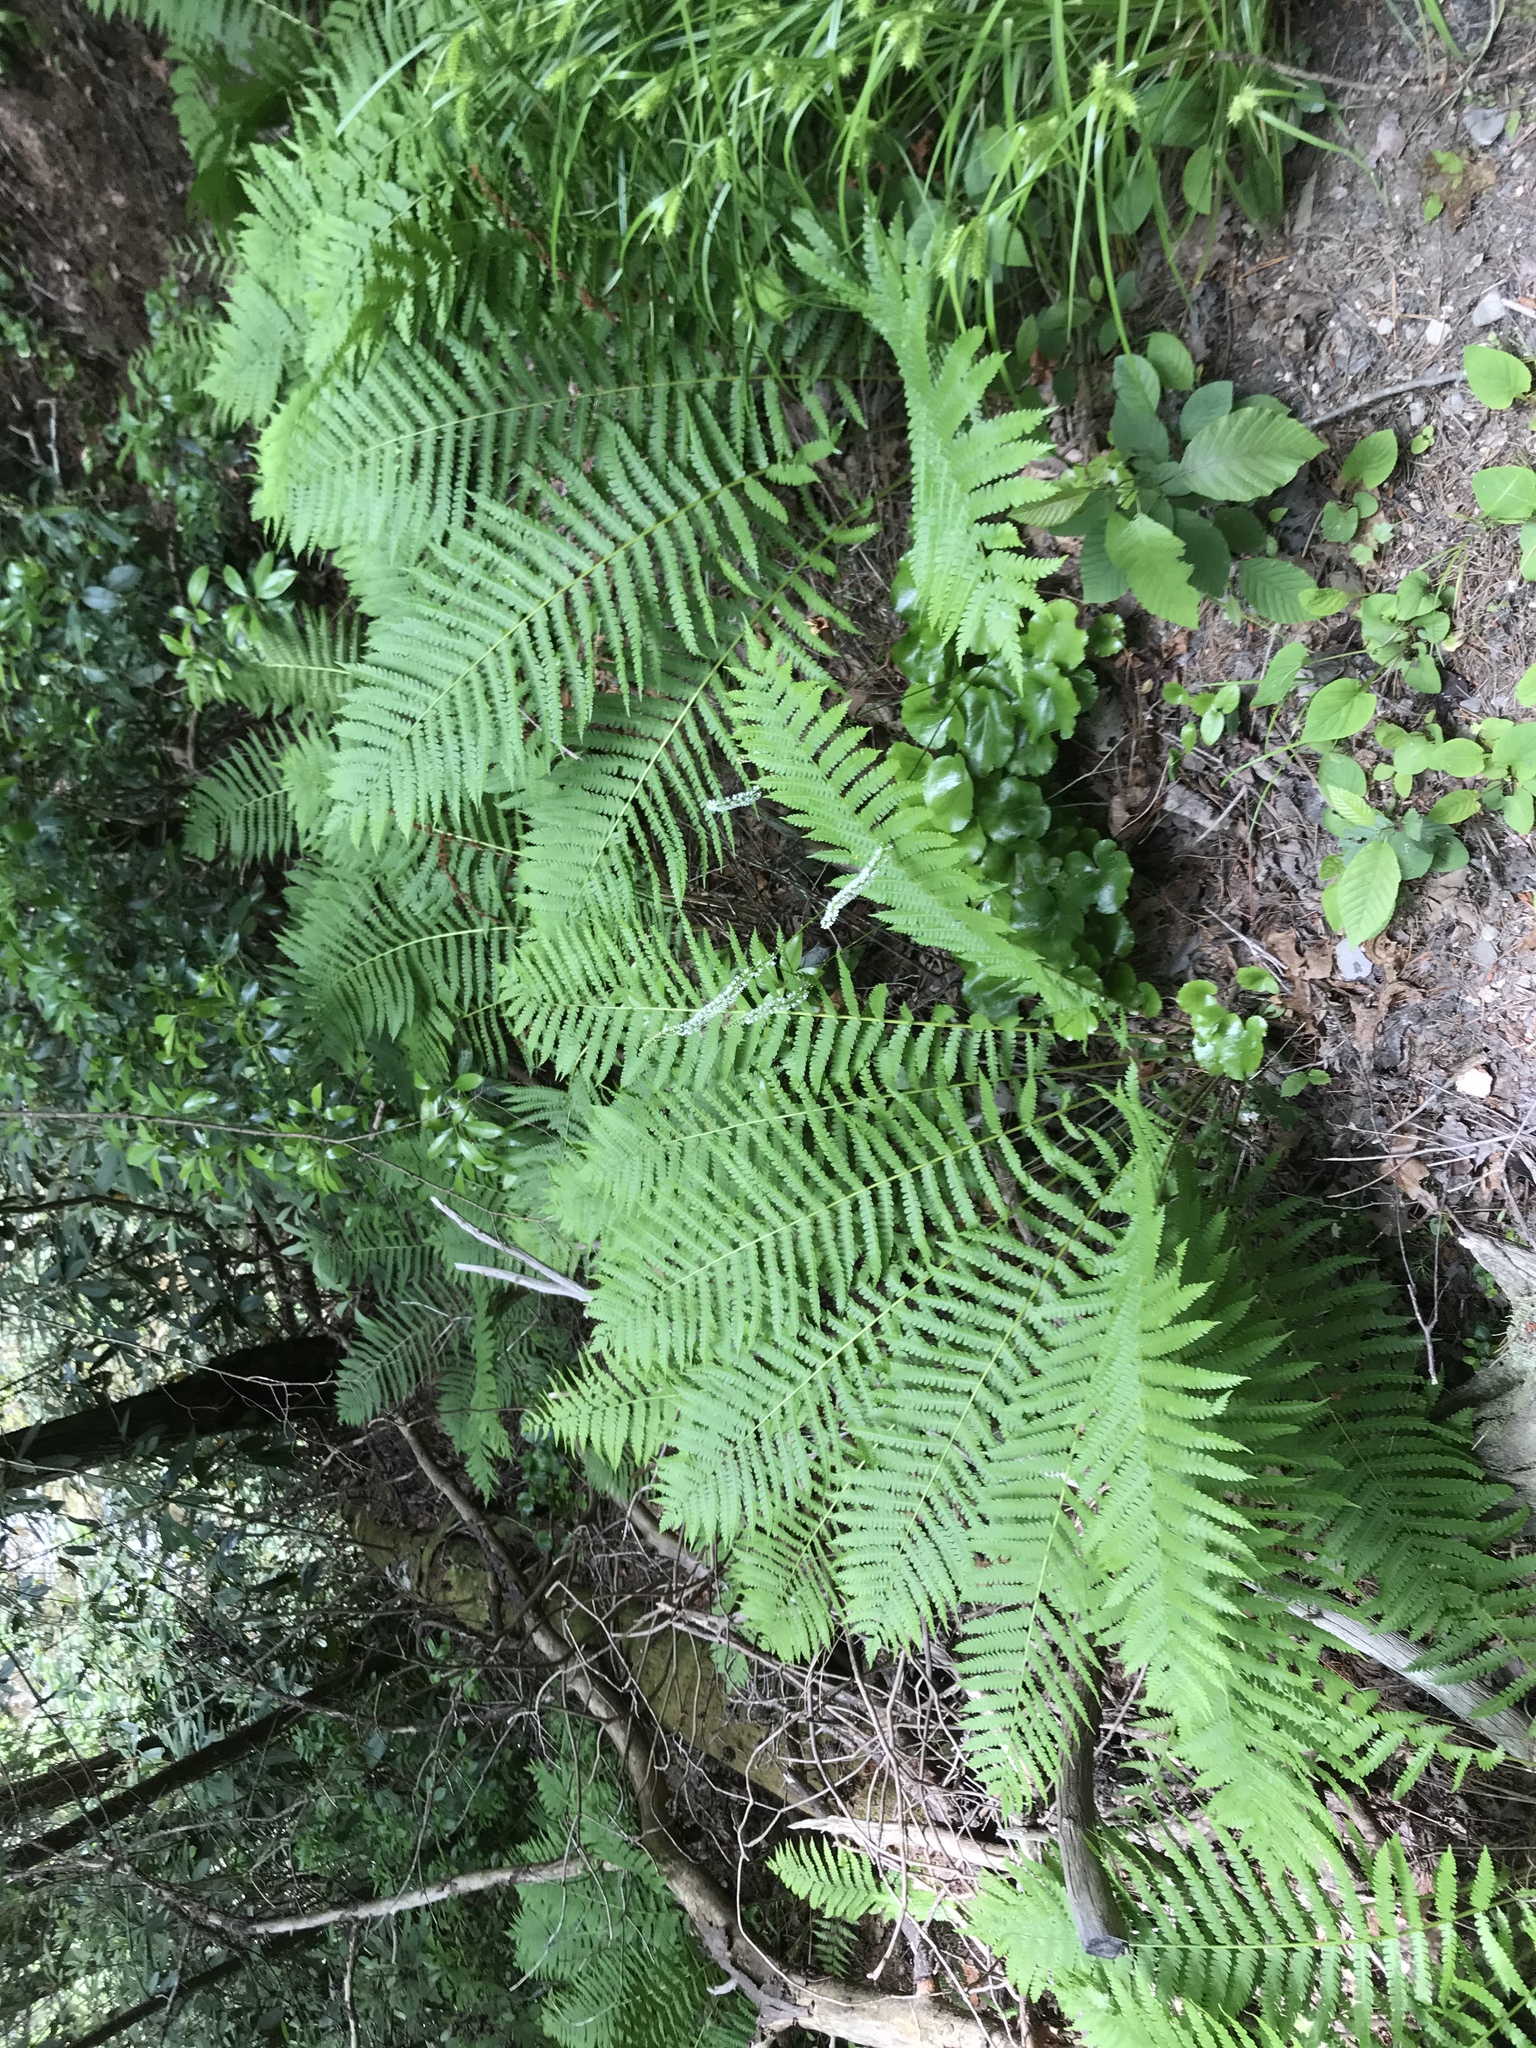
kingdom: Plantae
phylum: Tracheophyta
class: Polypodiopsida
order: Osmundales
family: Osmundaceae
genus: Osmundastrum
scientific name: Osmundastrum cinnamomeum
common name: Cinnamon fern
